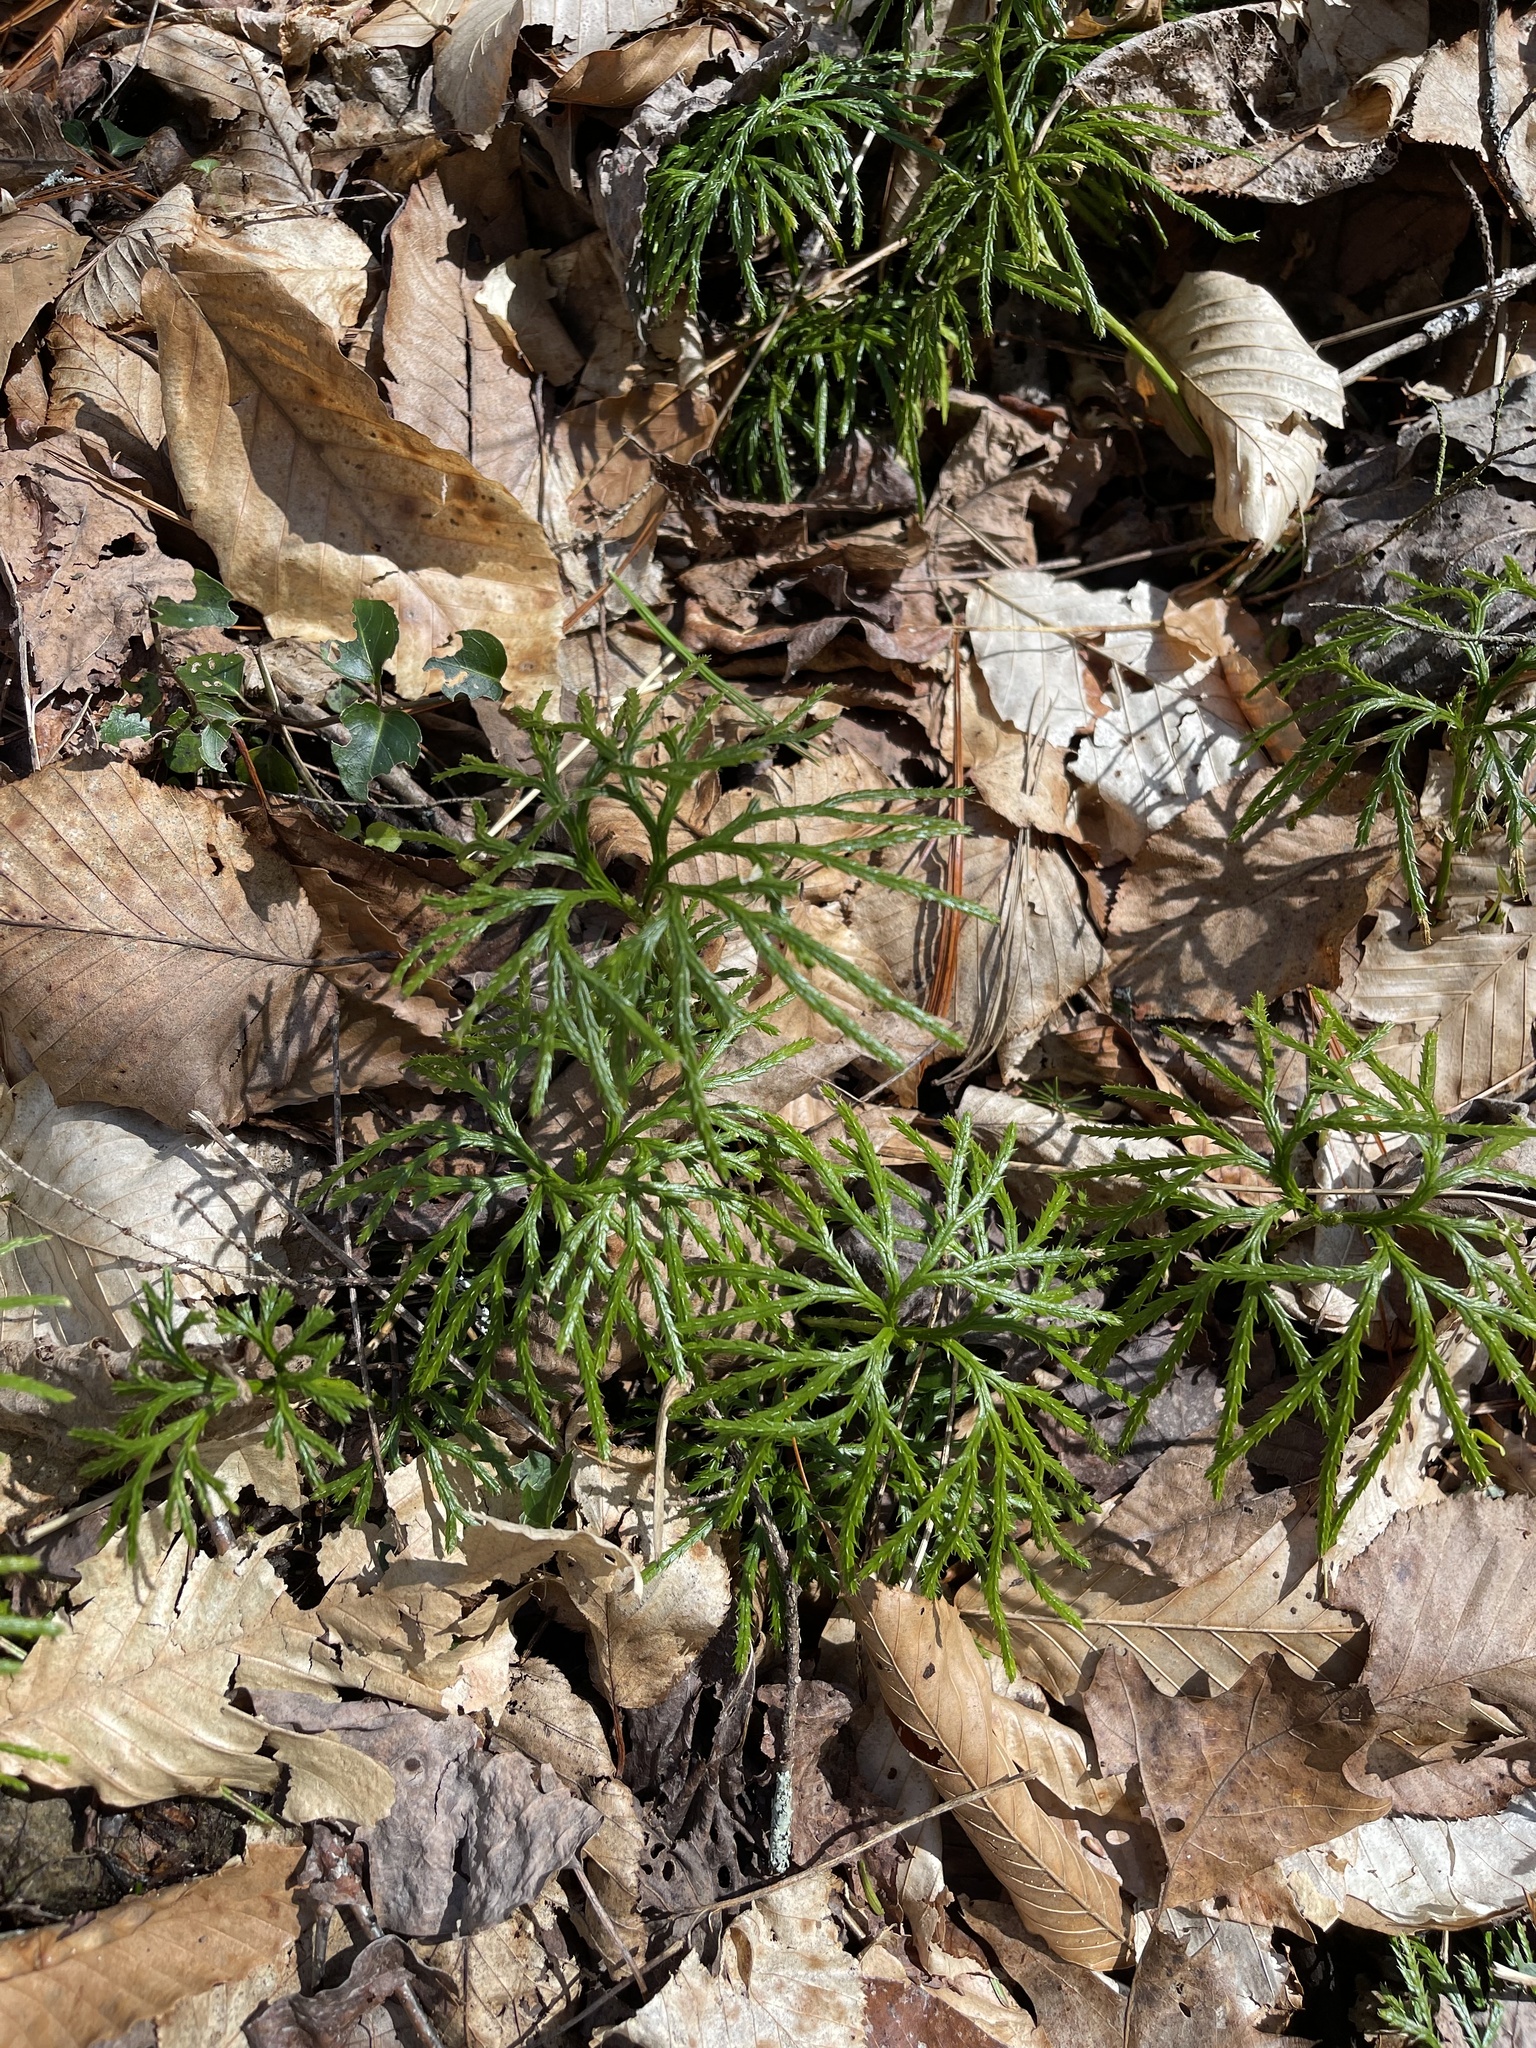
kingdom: Plantae
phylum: Tracheophyta
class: Lycopodiopsida
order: Lycopodiales
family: Lycopodiaceae
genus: Diphasiastrum
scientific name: Diphasiastrum digitatum
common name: Southern running-pine
